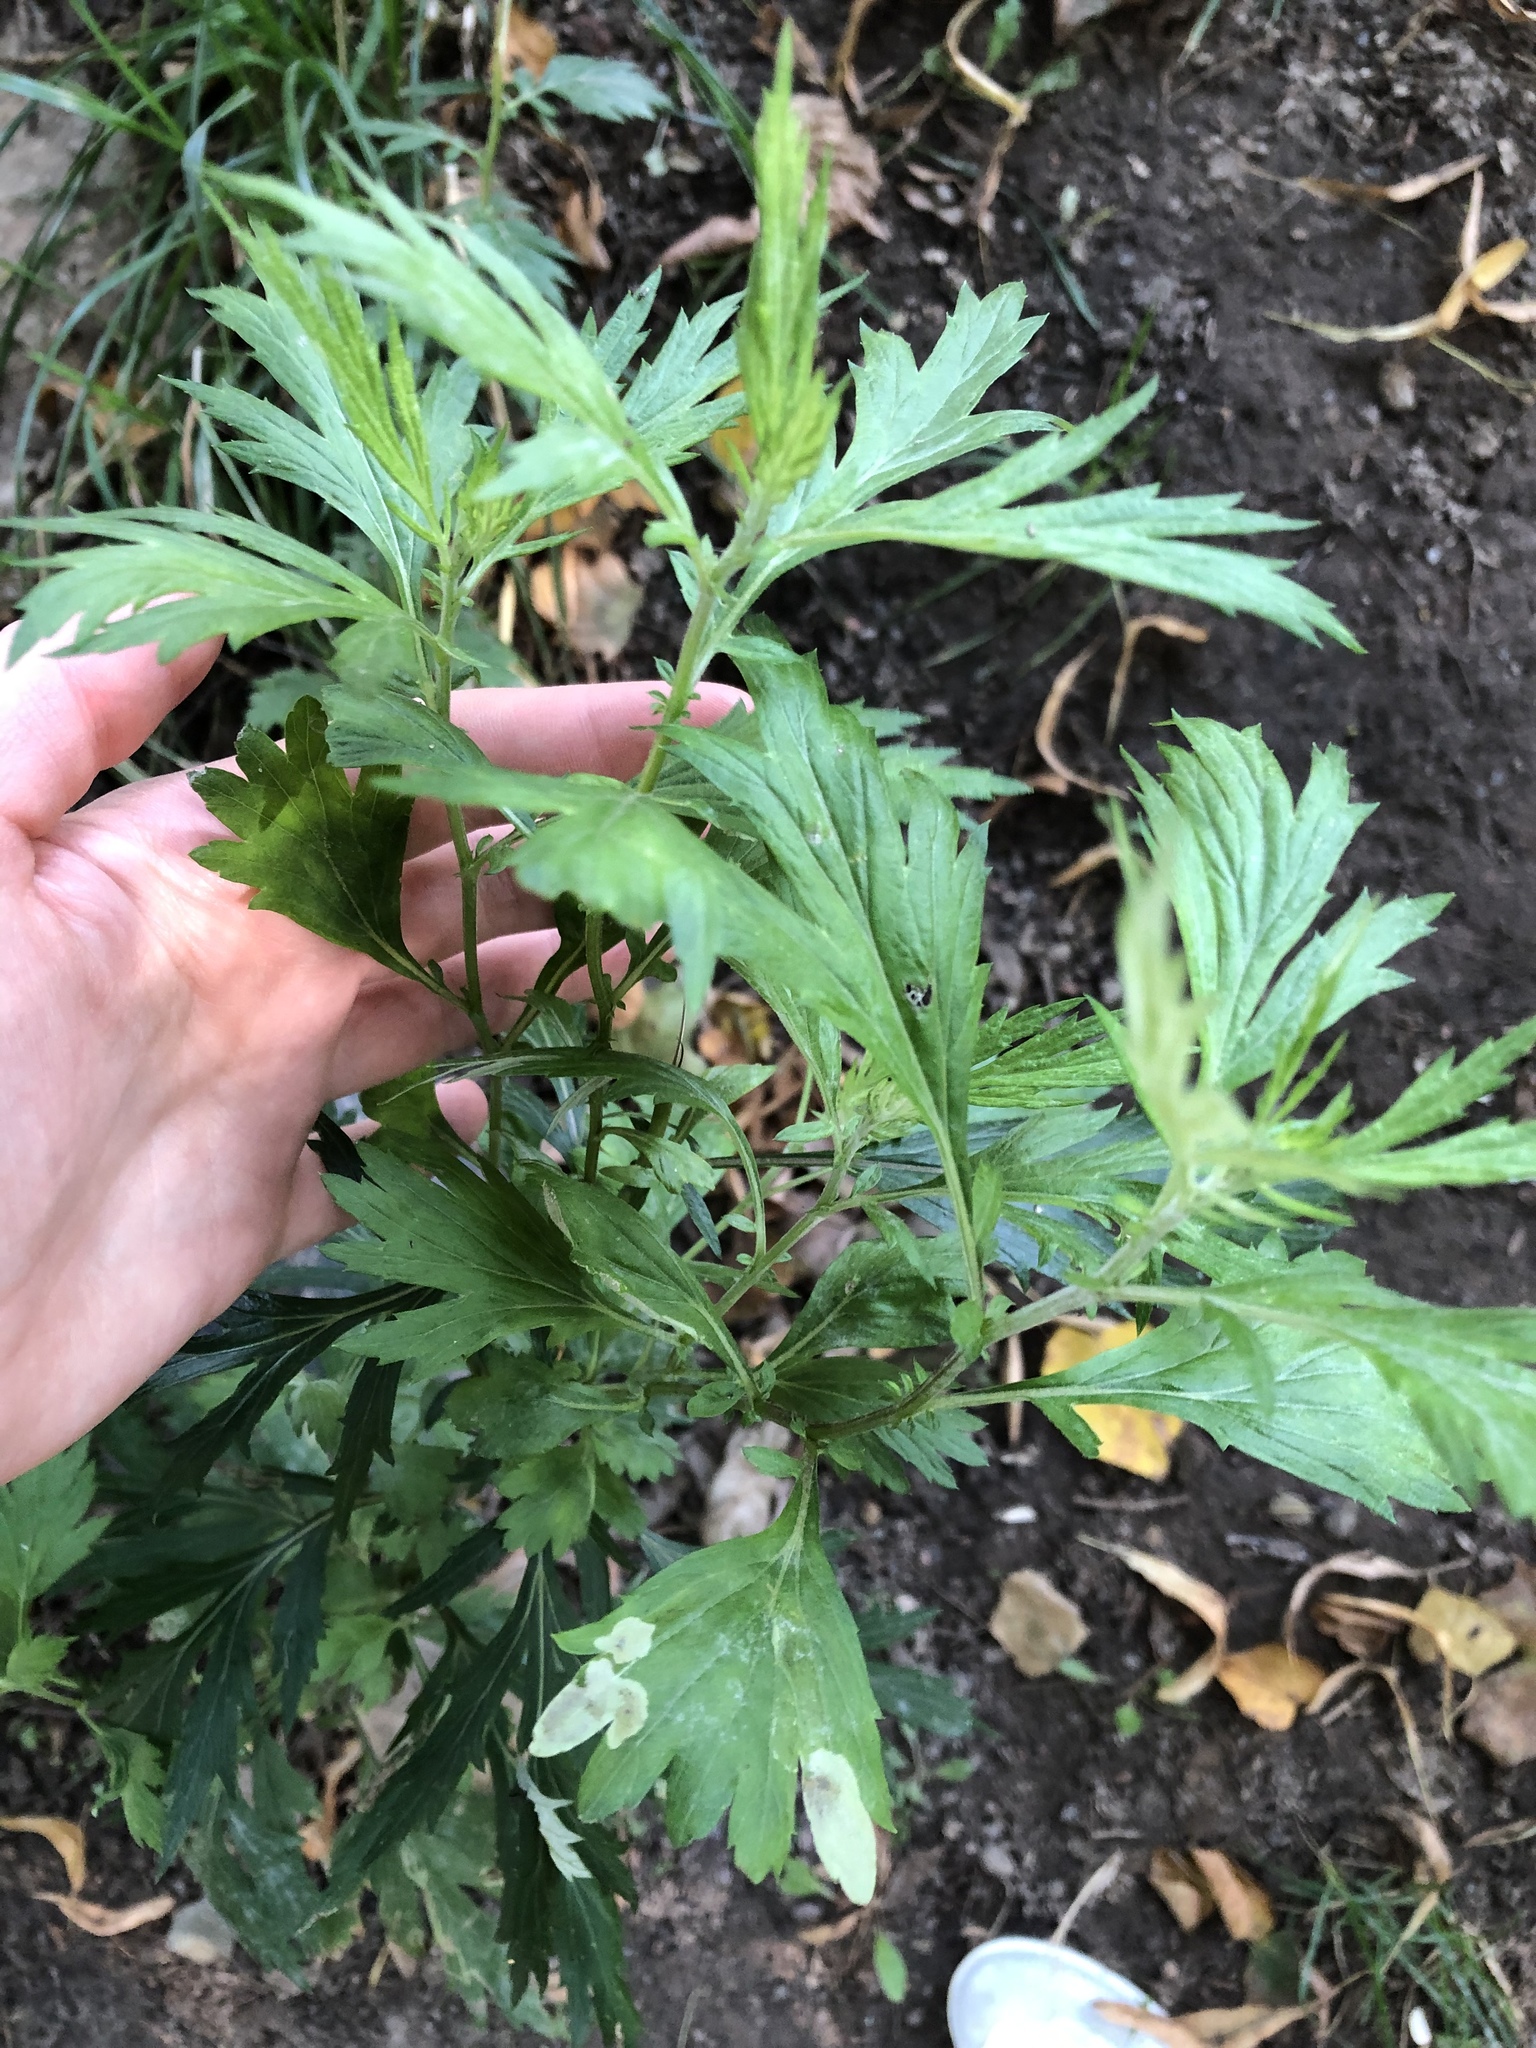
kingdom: Plantae
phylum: Tracheophyta
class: Magnoliopsida
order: Asterales
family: Asteraceae
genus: Artemisia
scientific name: Artemisia vulgaris
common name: Mugwort
